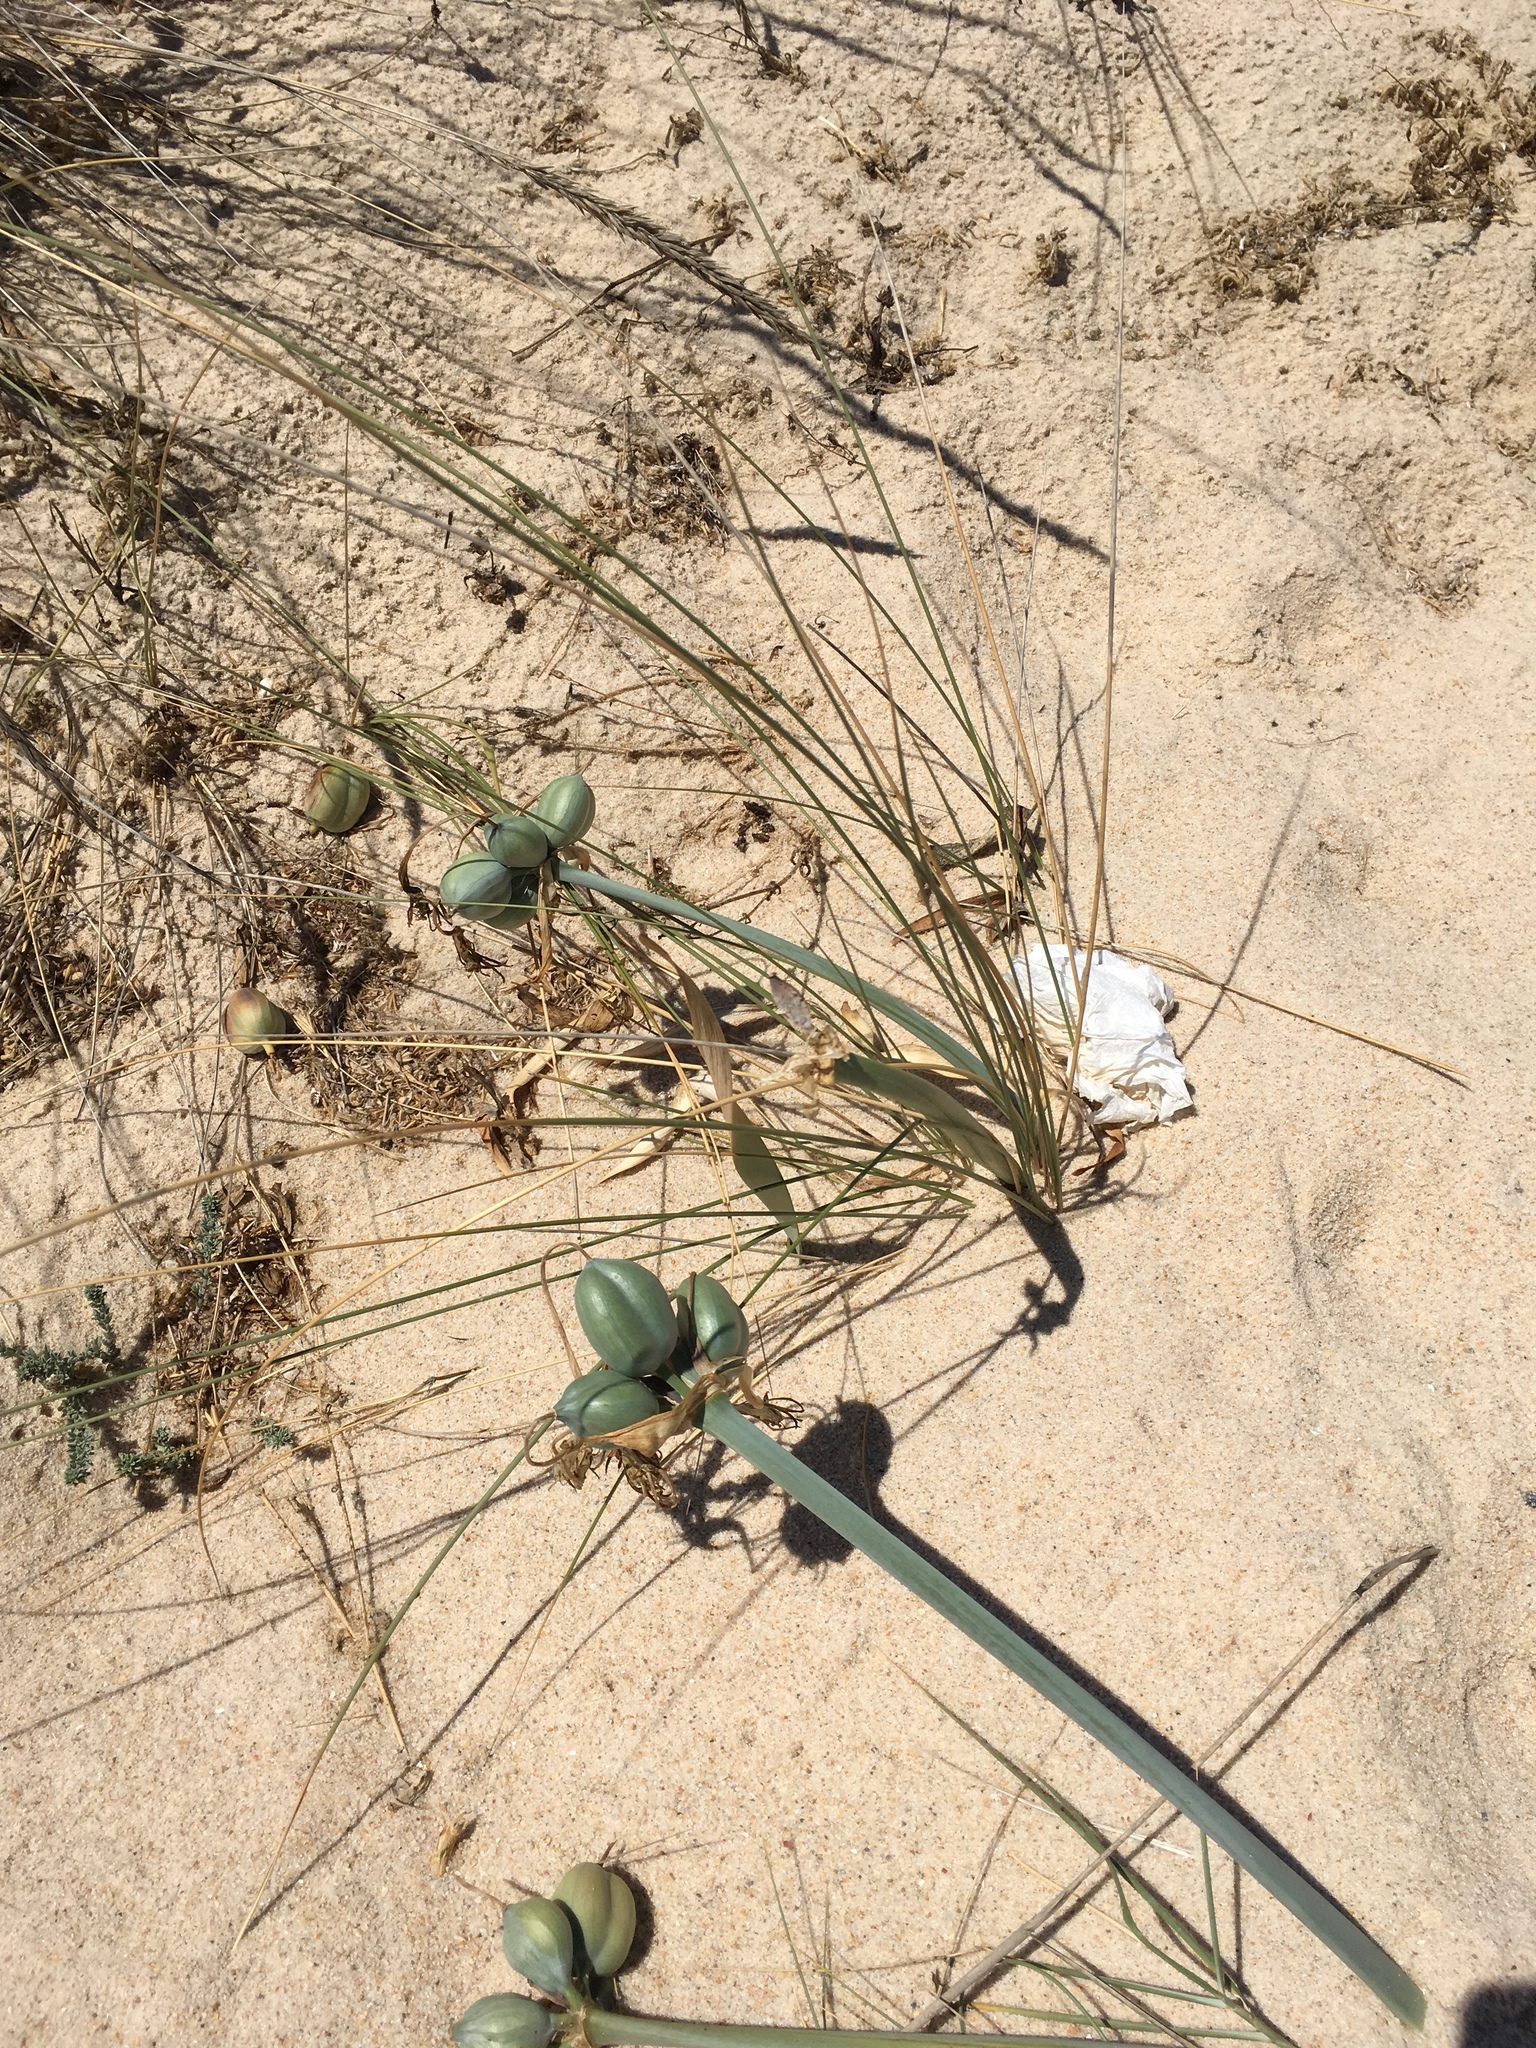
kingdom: Plantae
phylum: Tracheophyta
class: Liliopsida
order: Asparagales
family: Amaryllidaceae
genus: Pancratium
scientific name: Pancratium maritimum
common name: Sea-daffodil
